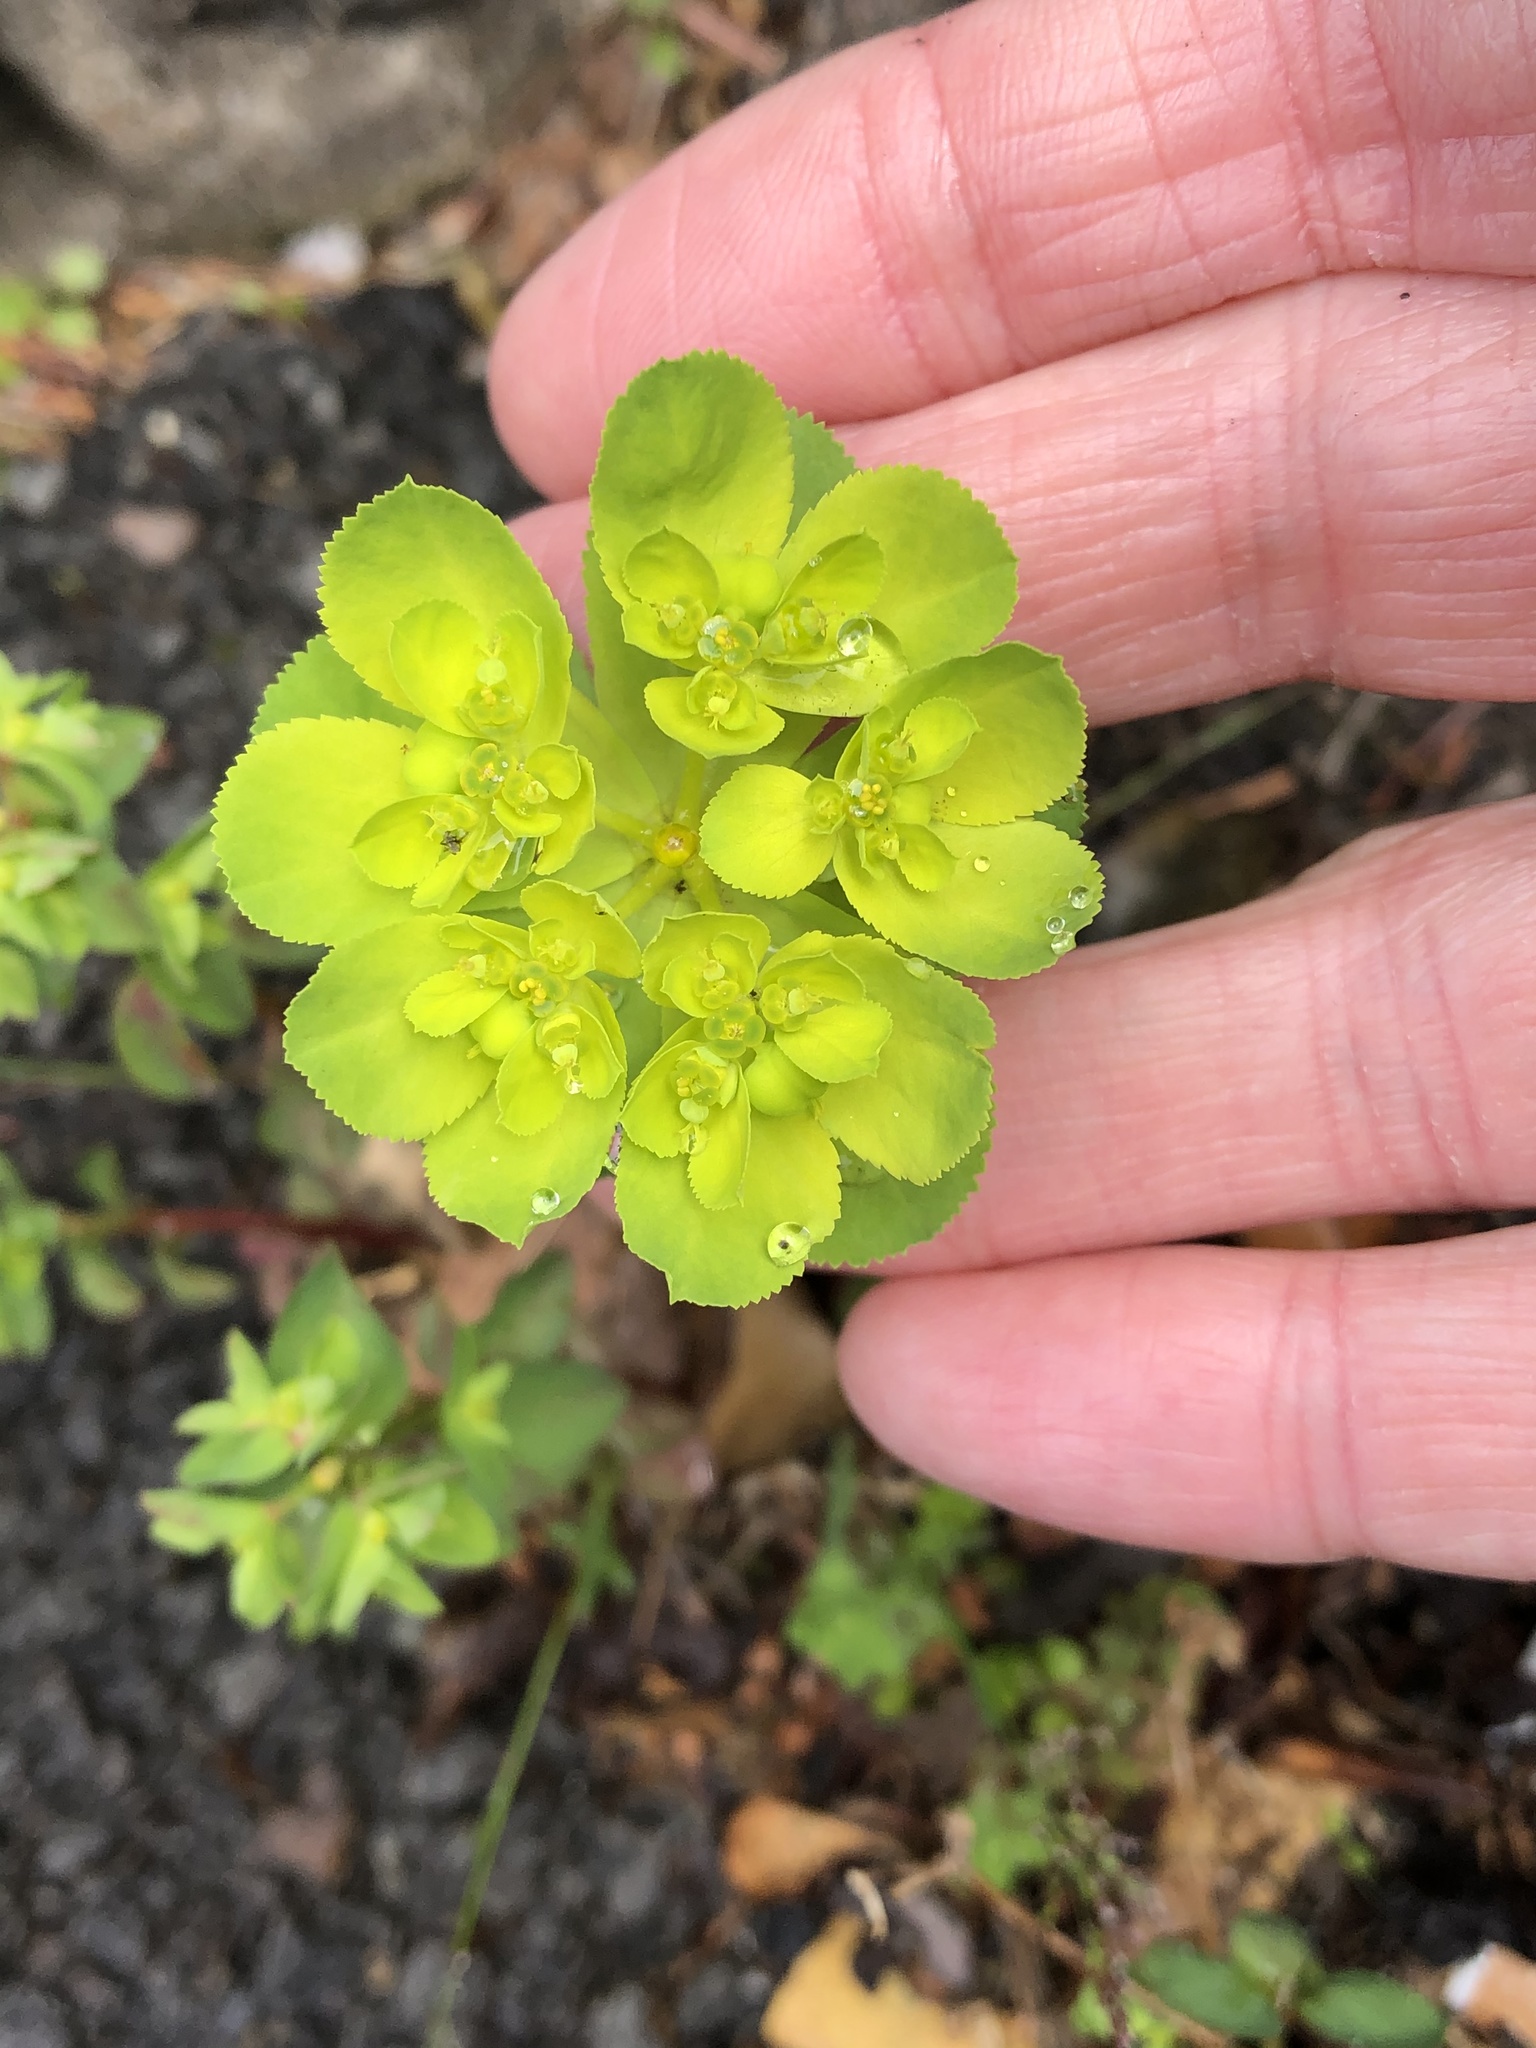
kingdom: Plantae
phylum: Tracheophyta
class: Magnoliopsida
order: Malpighiales
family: Euphorbiaceae
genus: Euphorbia
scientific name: Euphorbia helioscopia
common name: Sun spurge
